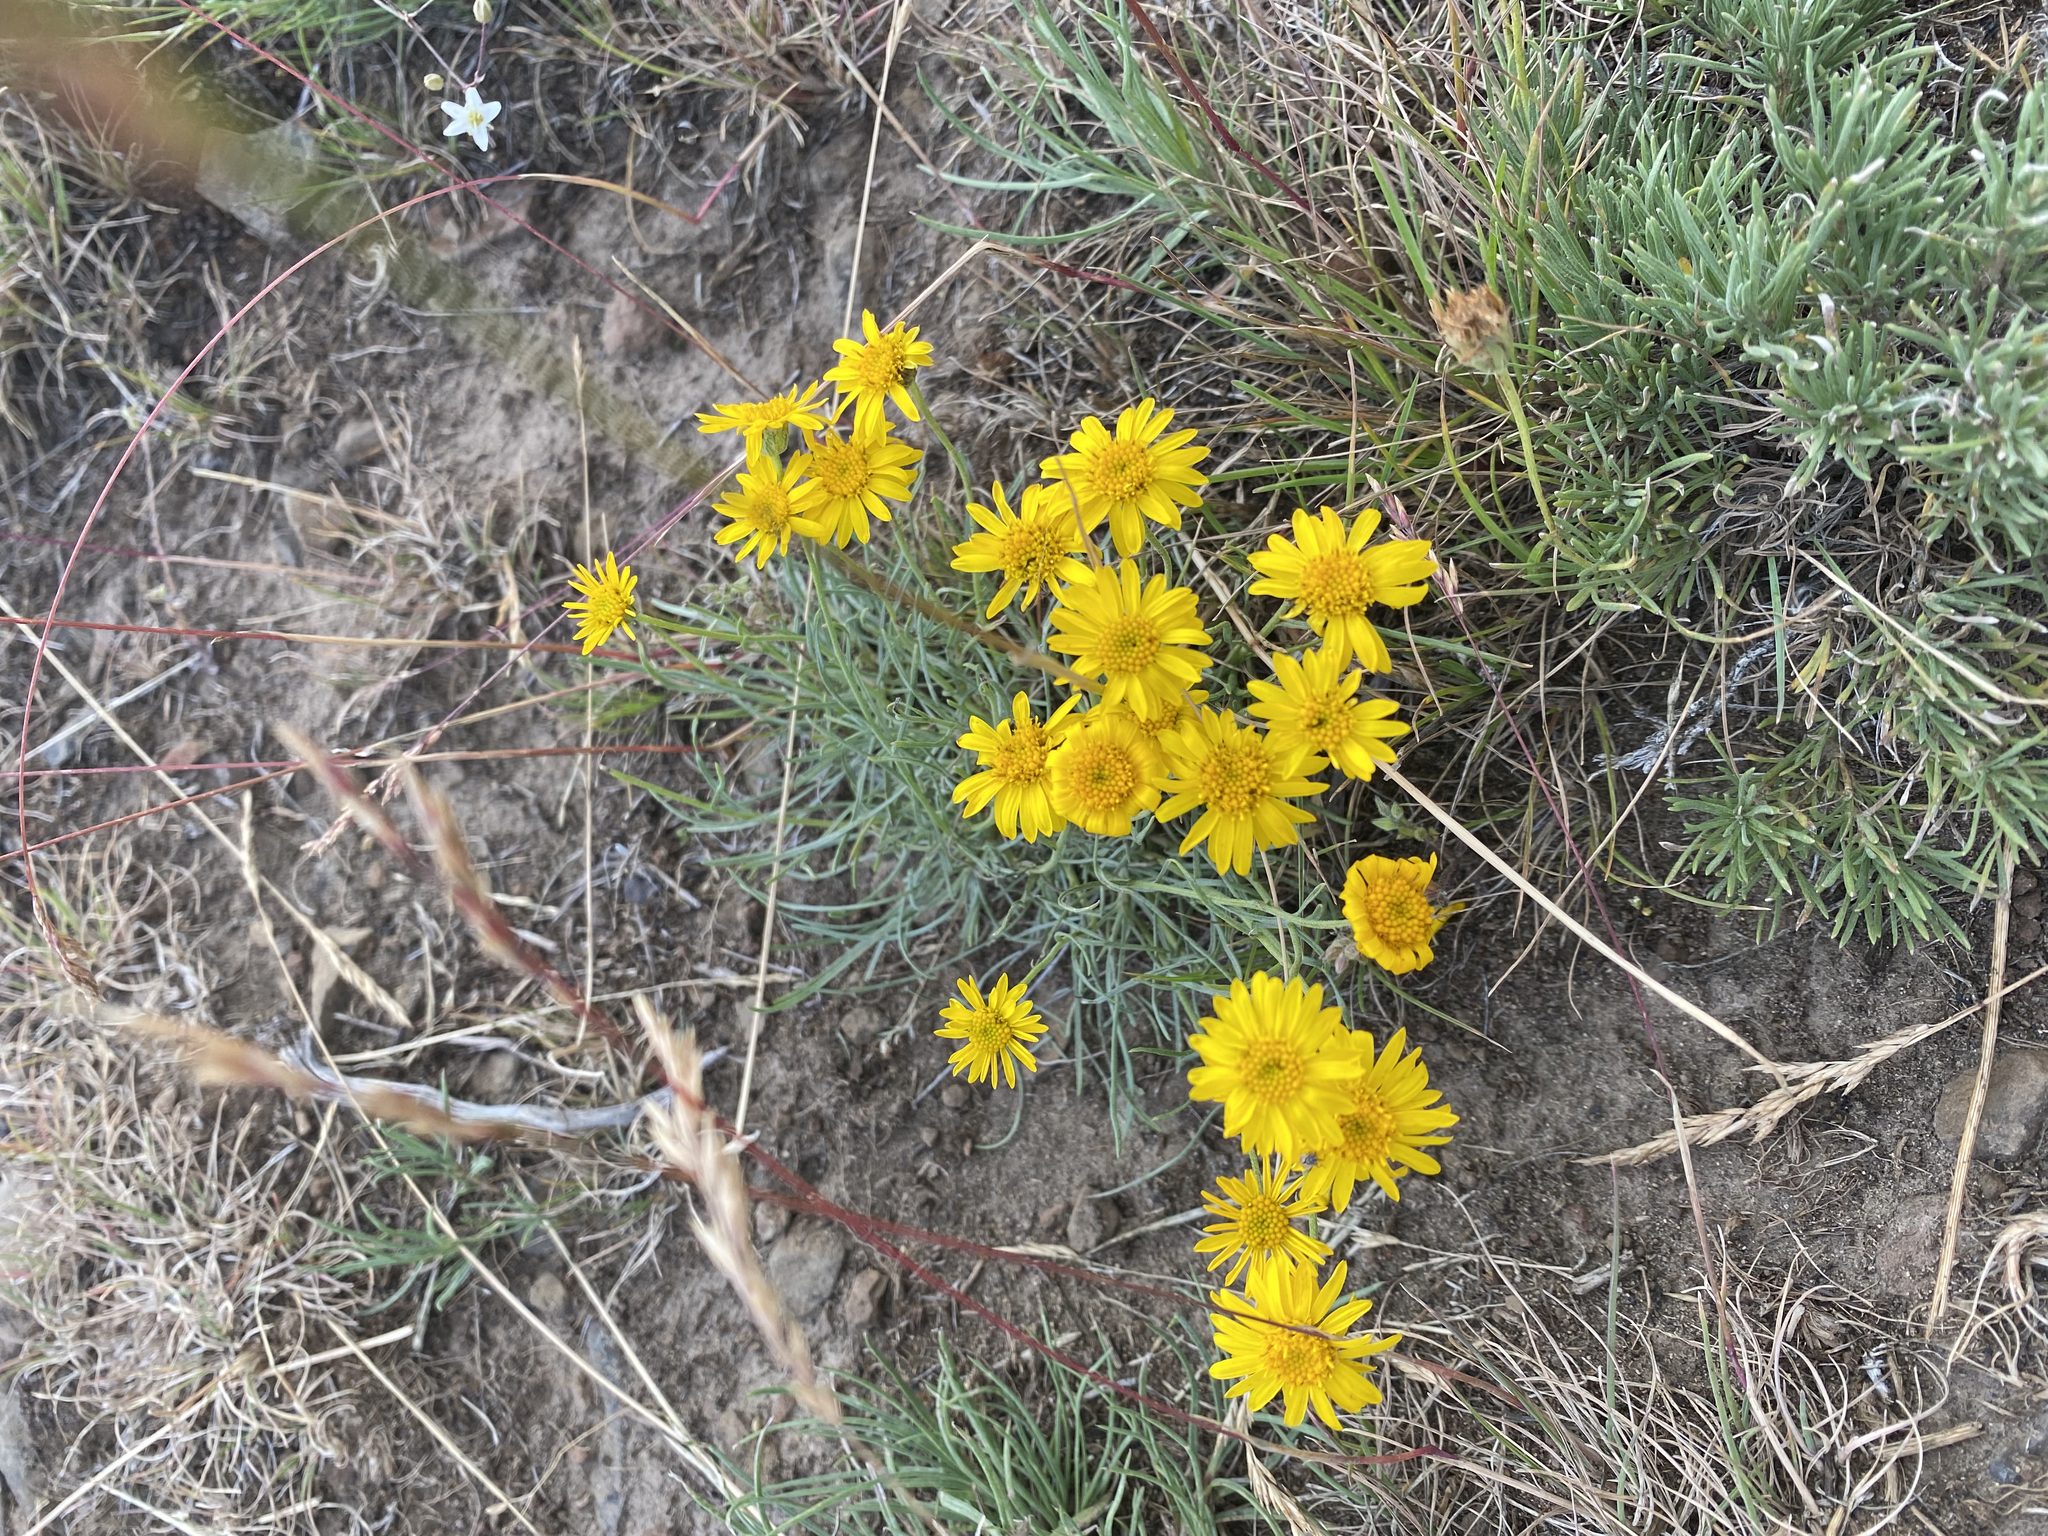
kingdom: Plantae
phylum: Tracheophyta
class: Magnoliopsida
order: Asterales
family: Asteraceae
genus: Erigeron
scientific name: Erigeron linearis
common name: Desert yellow fleabane
